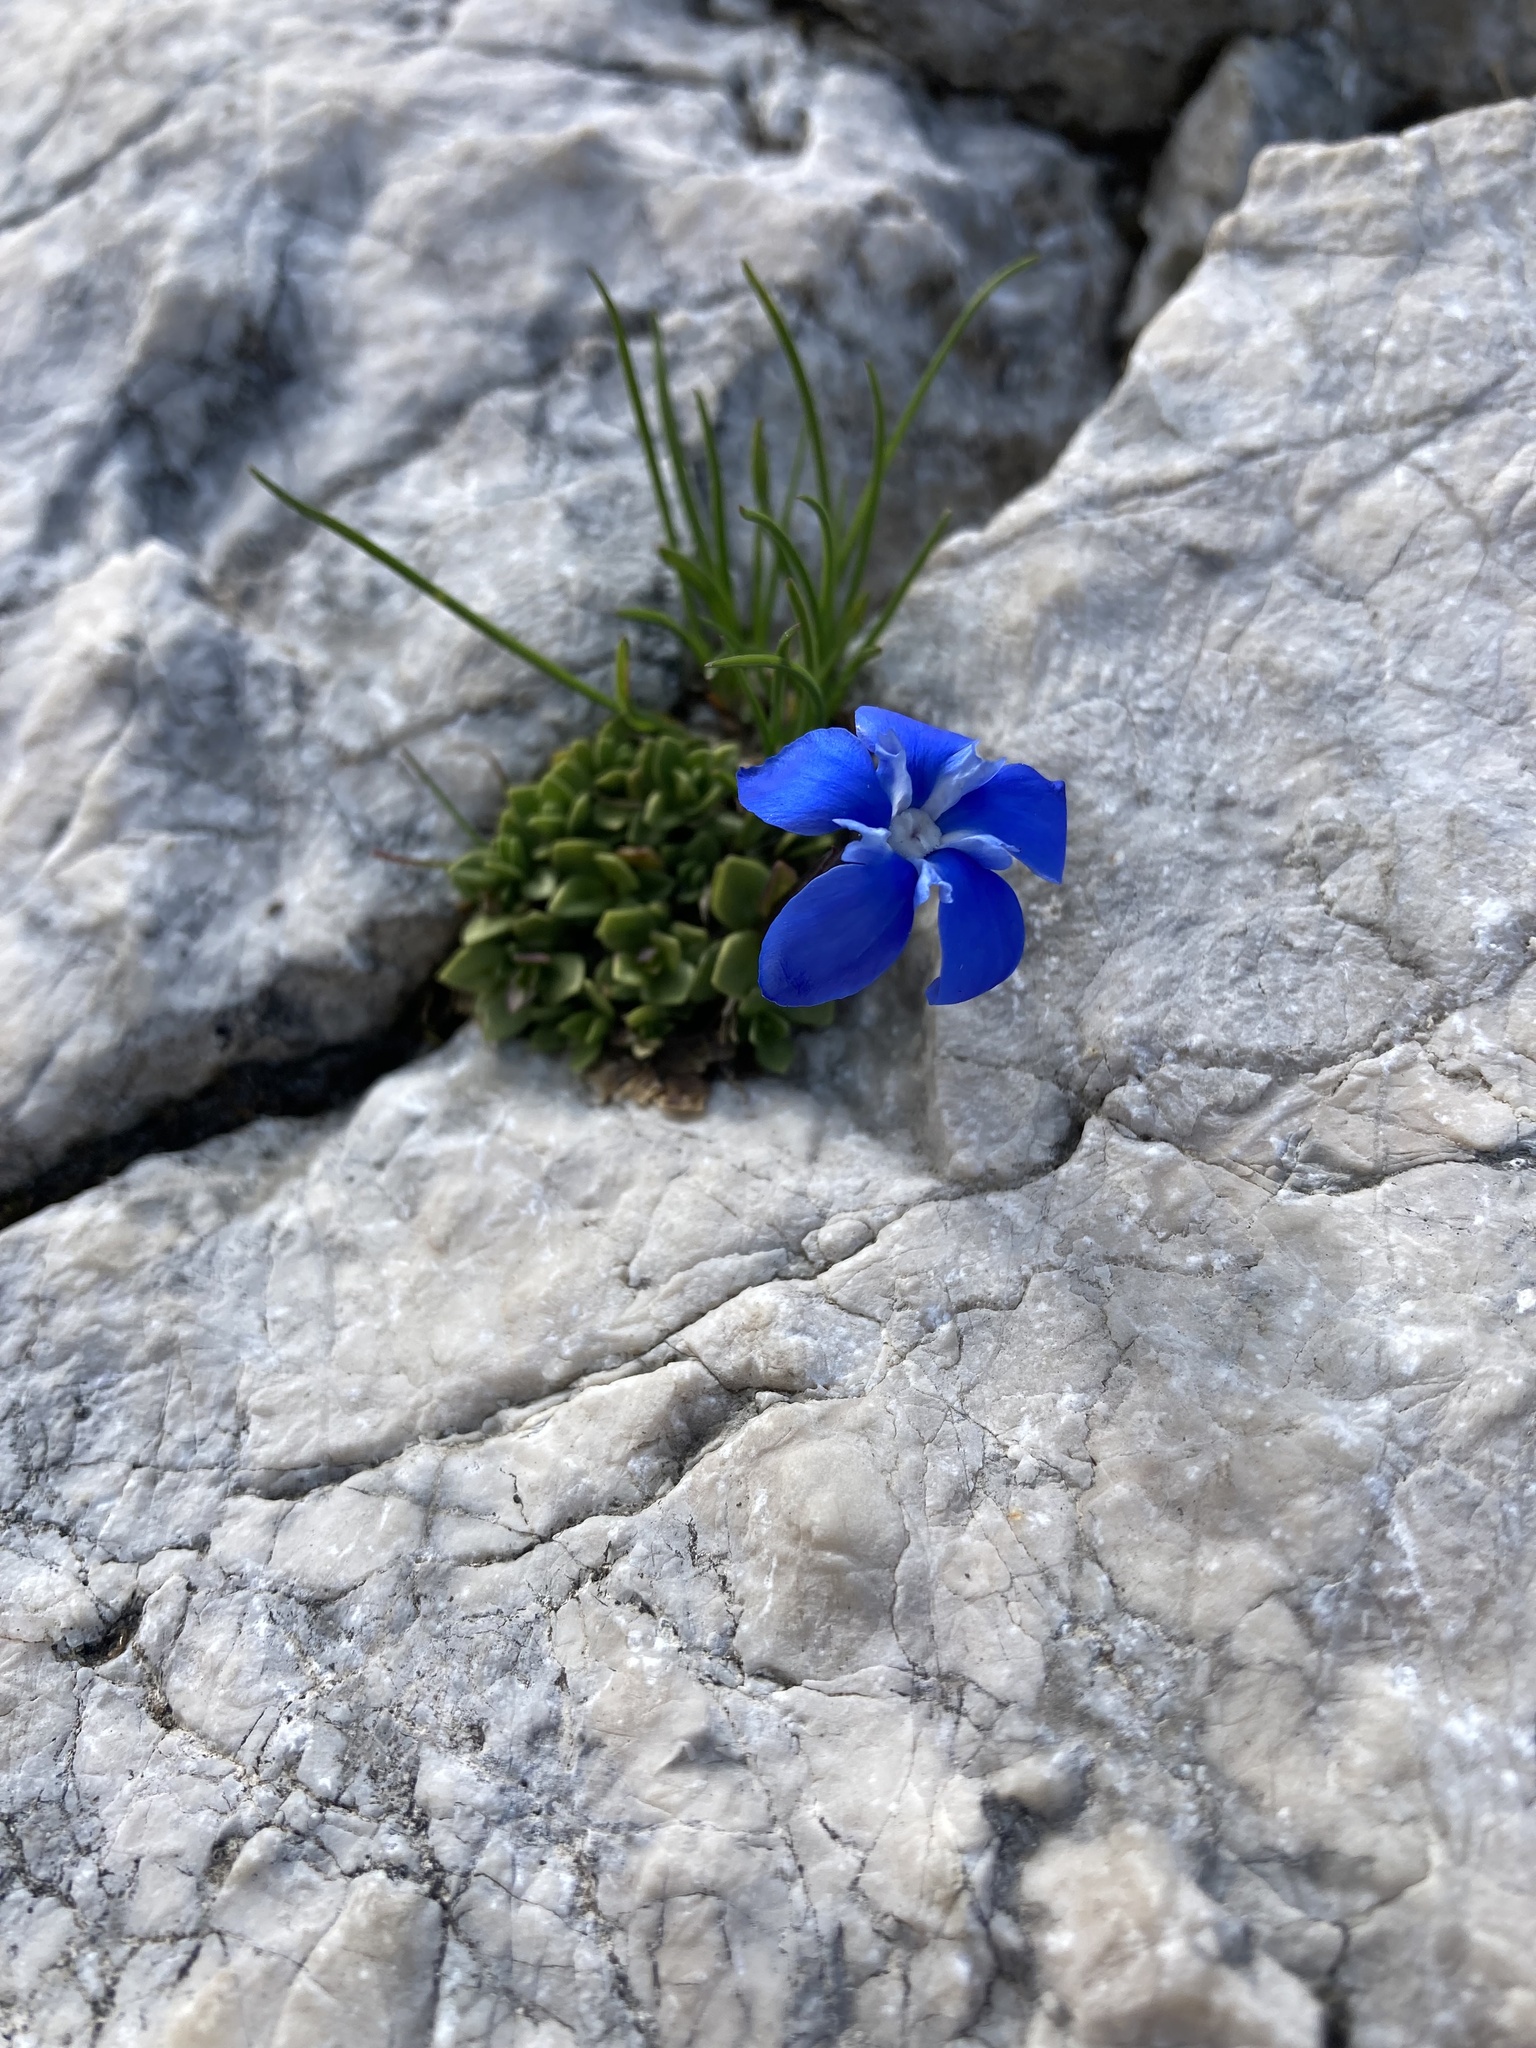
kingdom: Plantae
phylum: Tracheophyta
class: Magnoliopsida
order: Gentianales
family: Gentianaceae
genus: Gentiana
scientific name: Gentiana terglouensis
